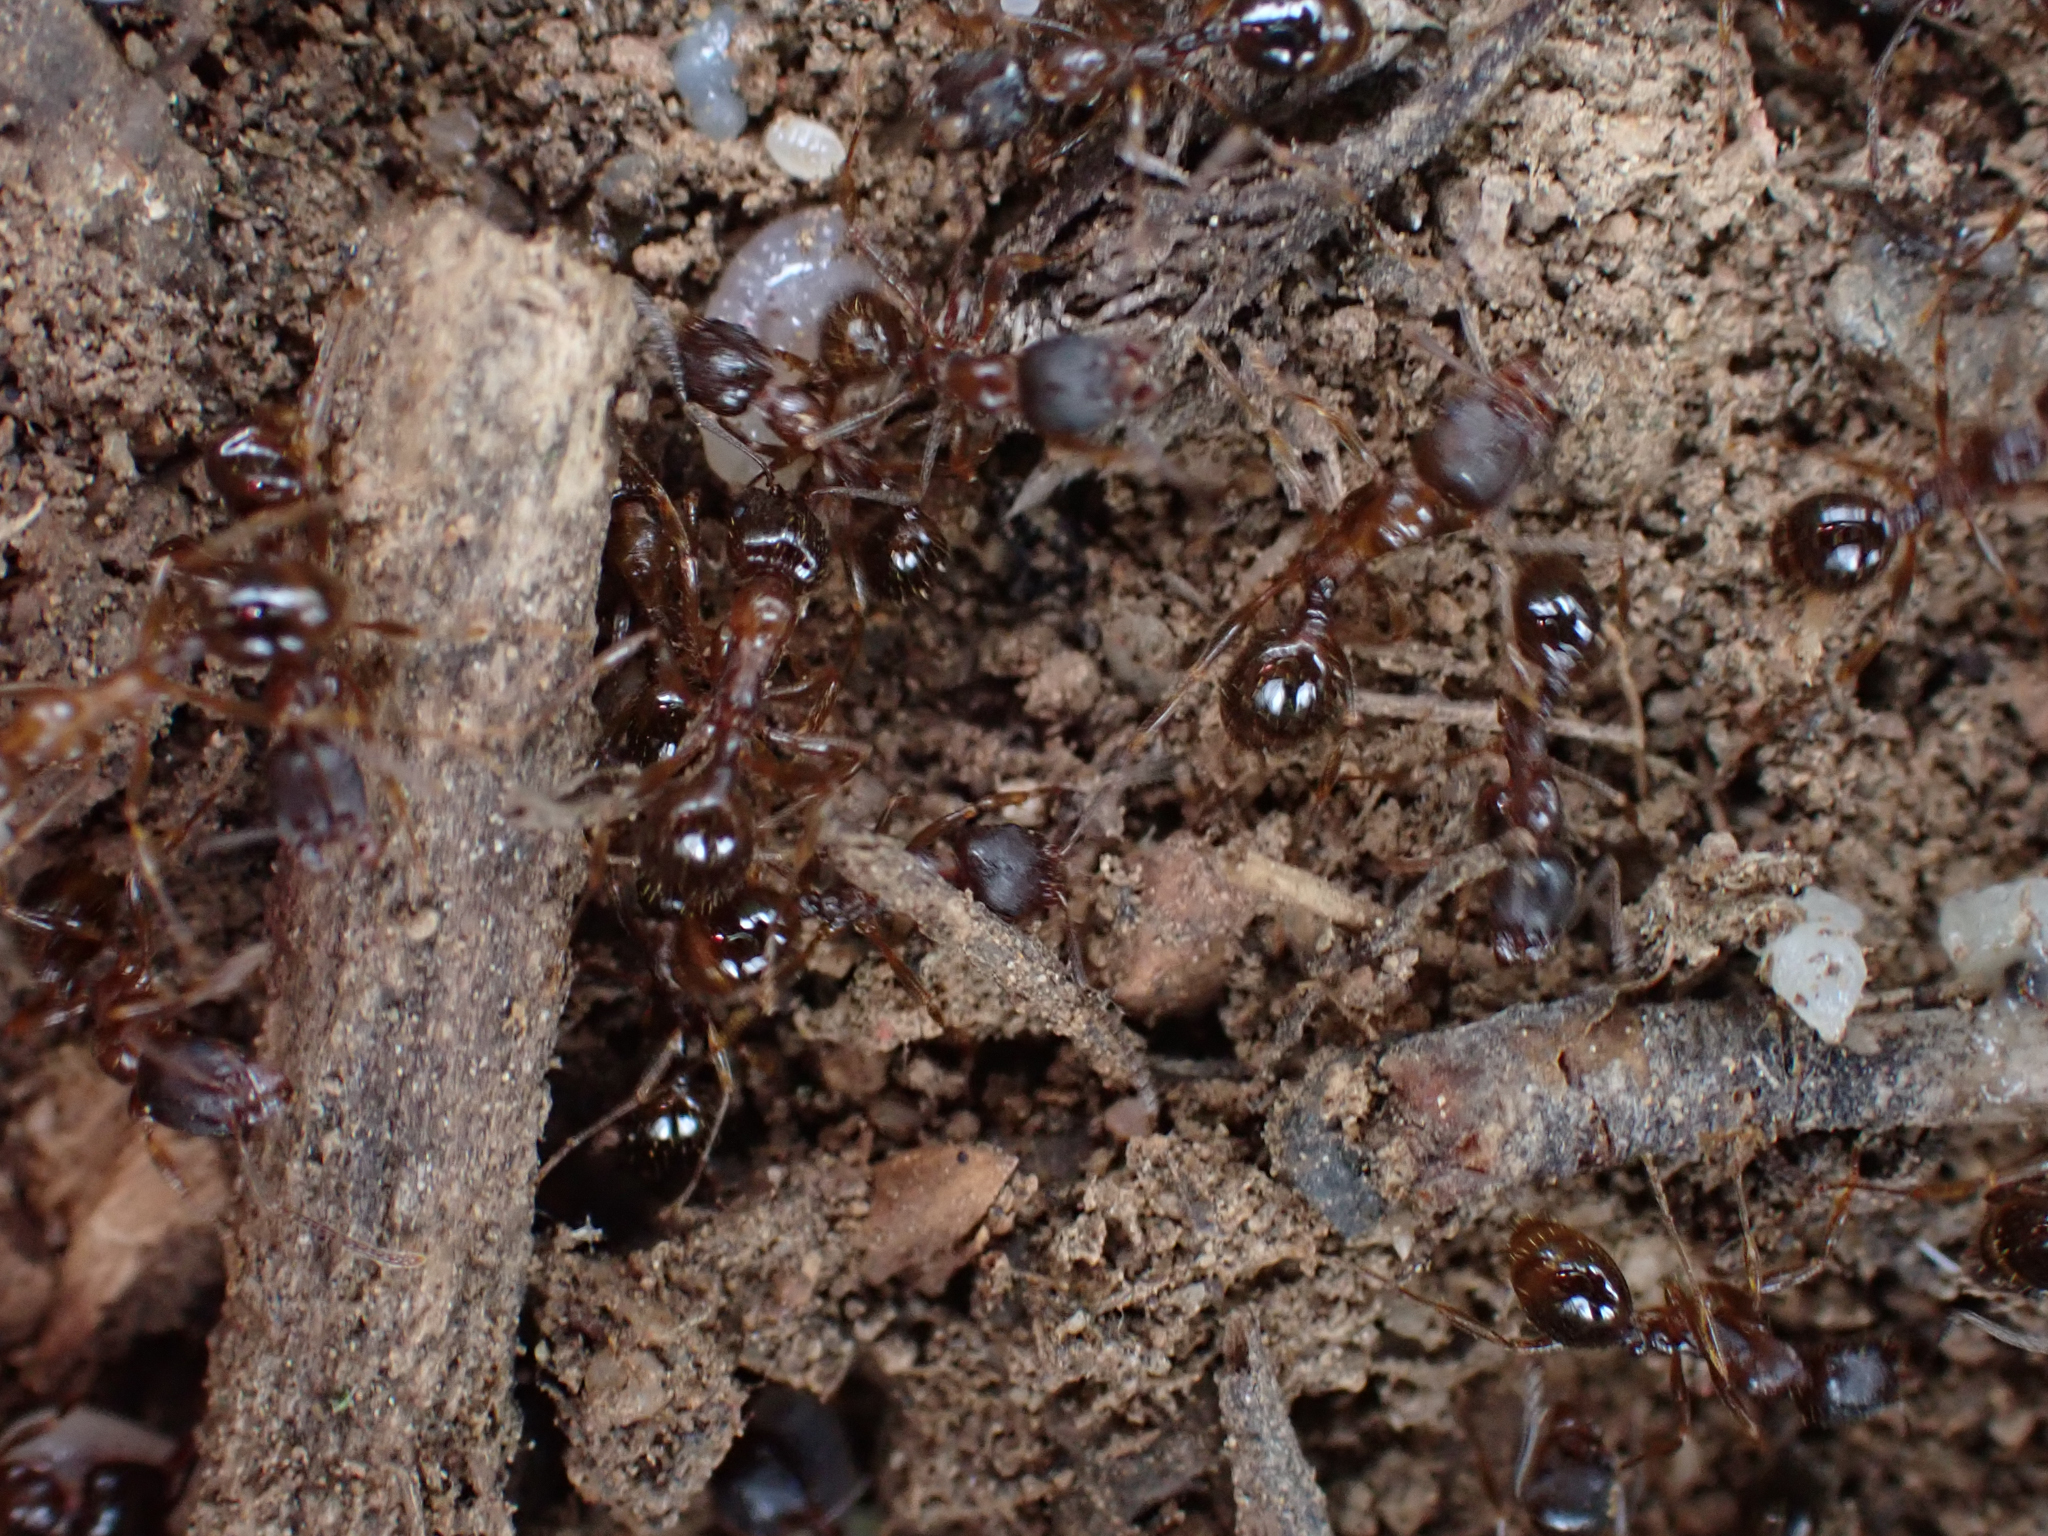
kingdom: Animalia
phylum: Arthropoda
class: Insecta
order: Hymenoptera
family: Formicidae
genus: Aphaenogaster
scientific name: Aphaenogaster occidentalis
